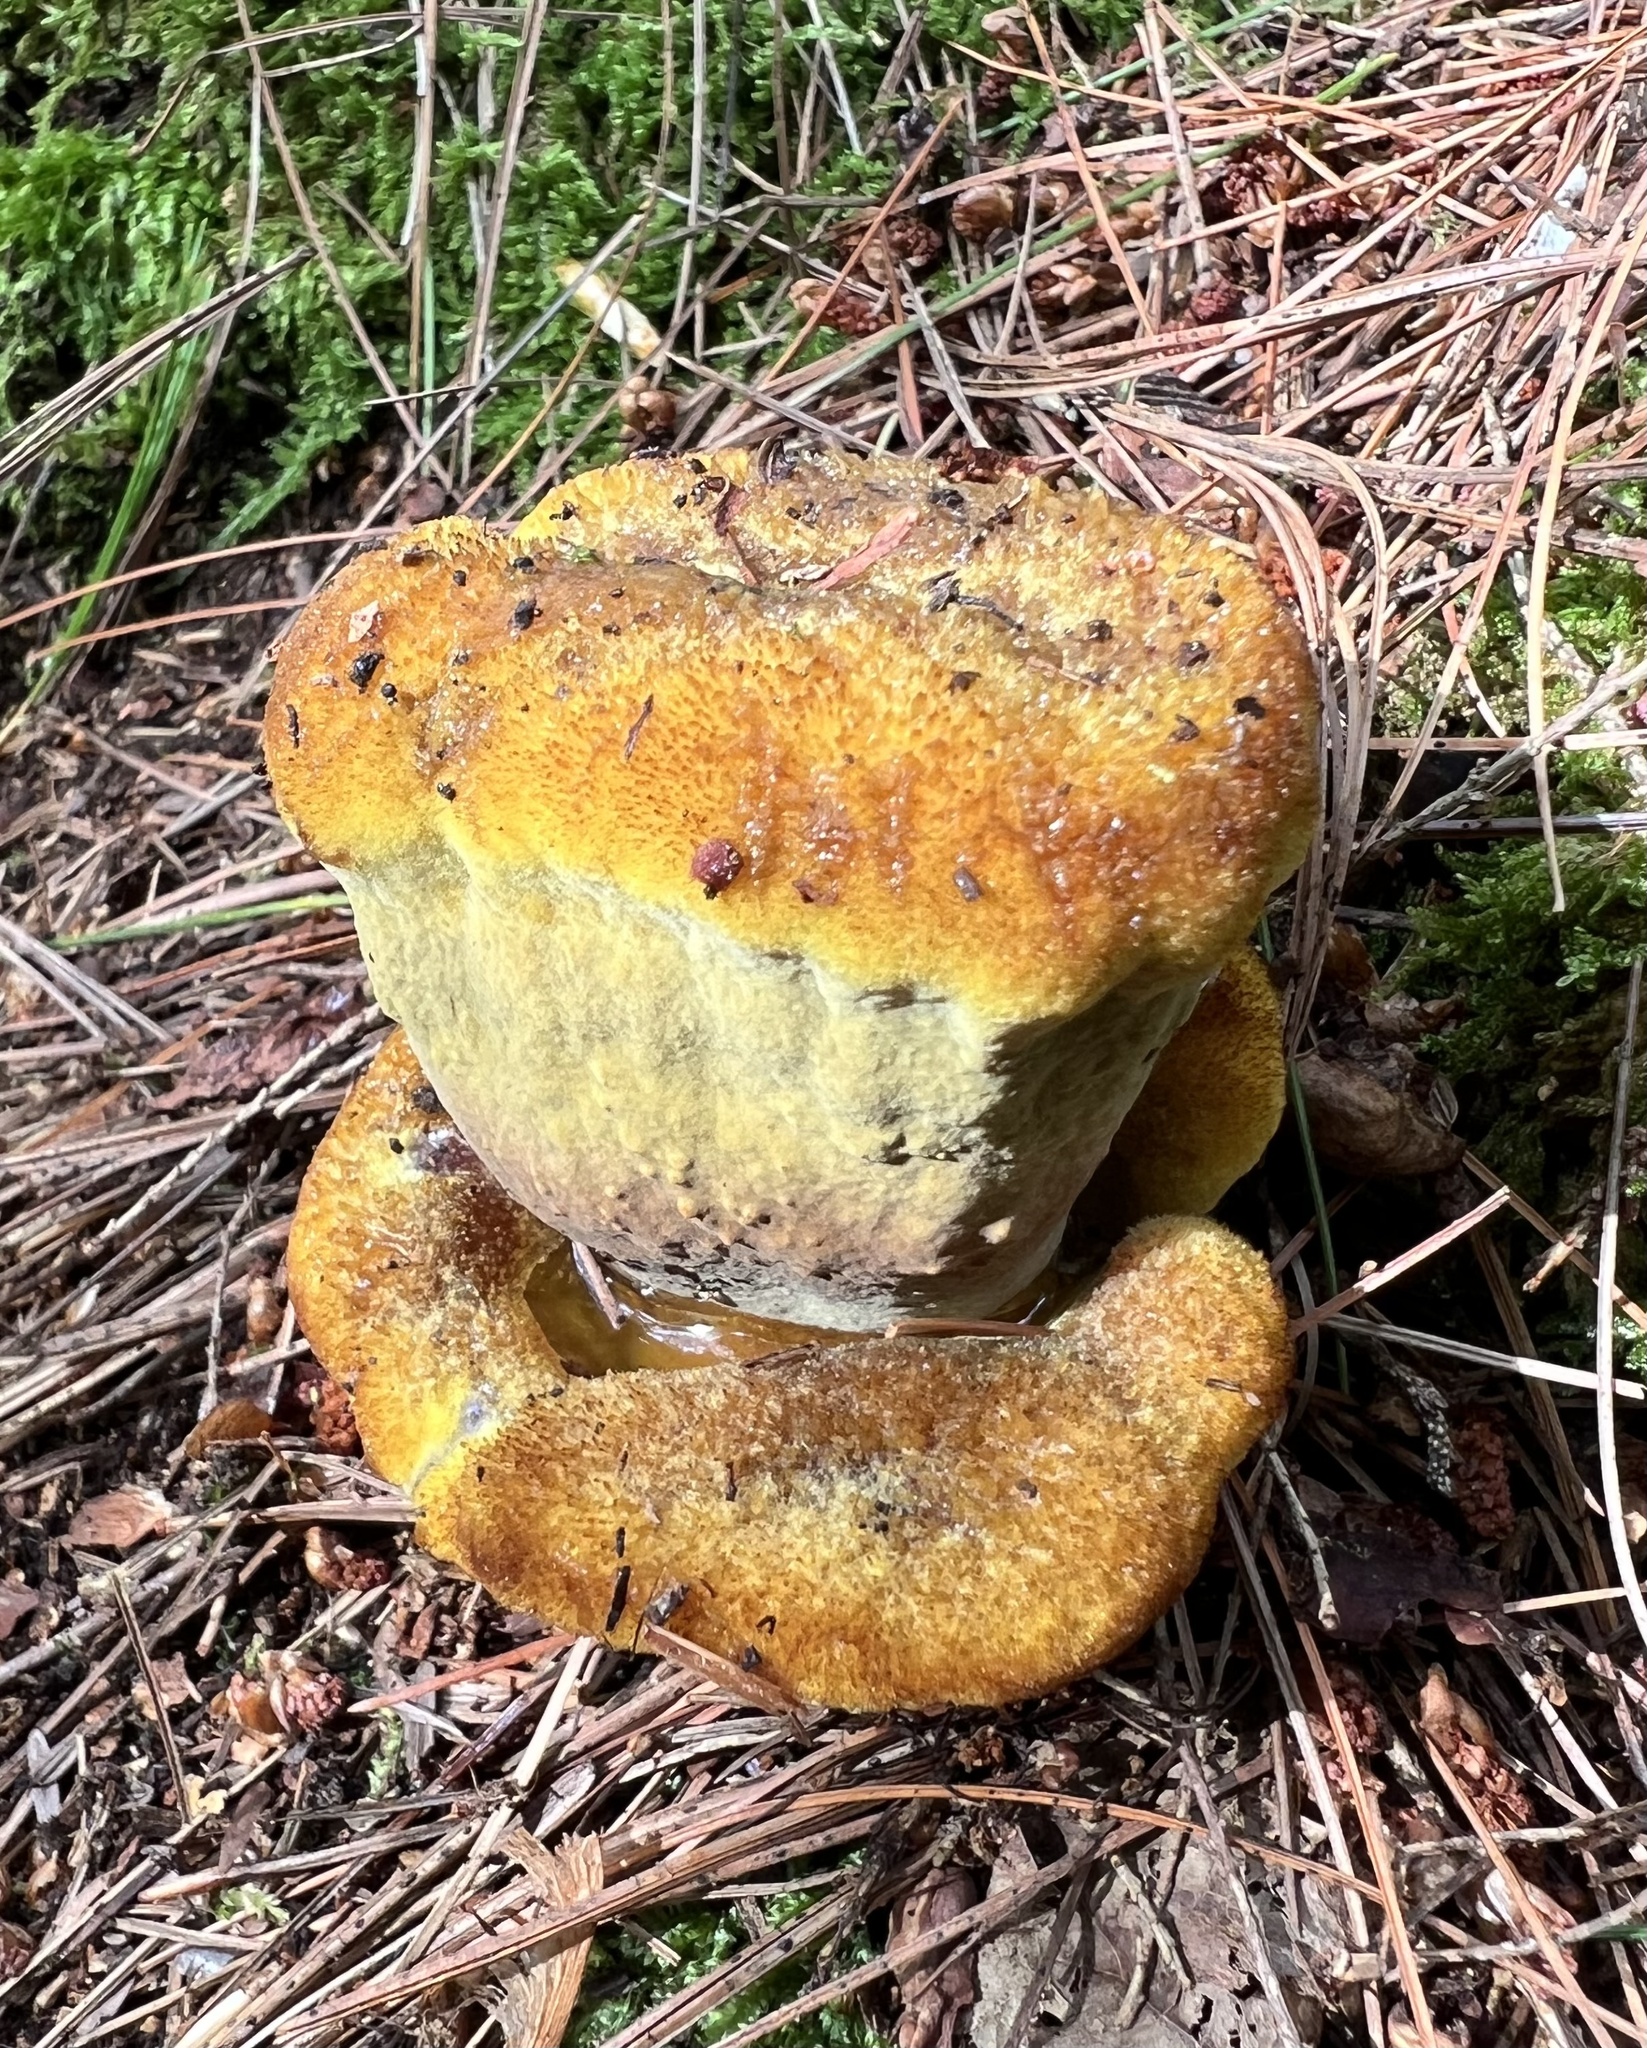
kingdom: Fungi
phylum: Basidiomycota
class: Agaricomycetes
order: Polyporales
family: Laetiporaceae
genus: Phaeolus
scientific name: Phaeolus schweinitzii
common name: Dyer's mazegill
